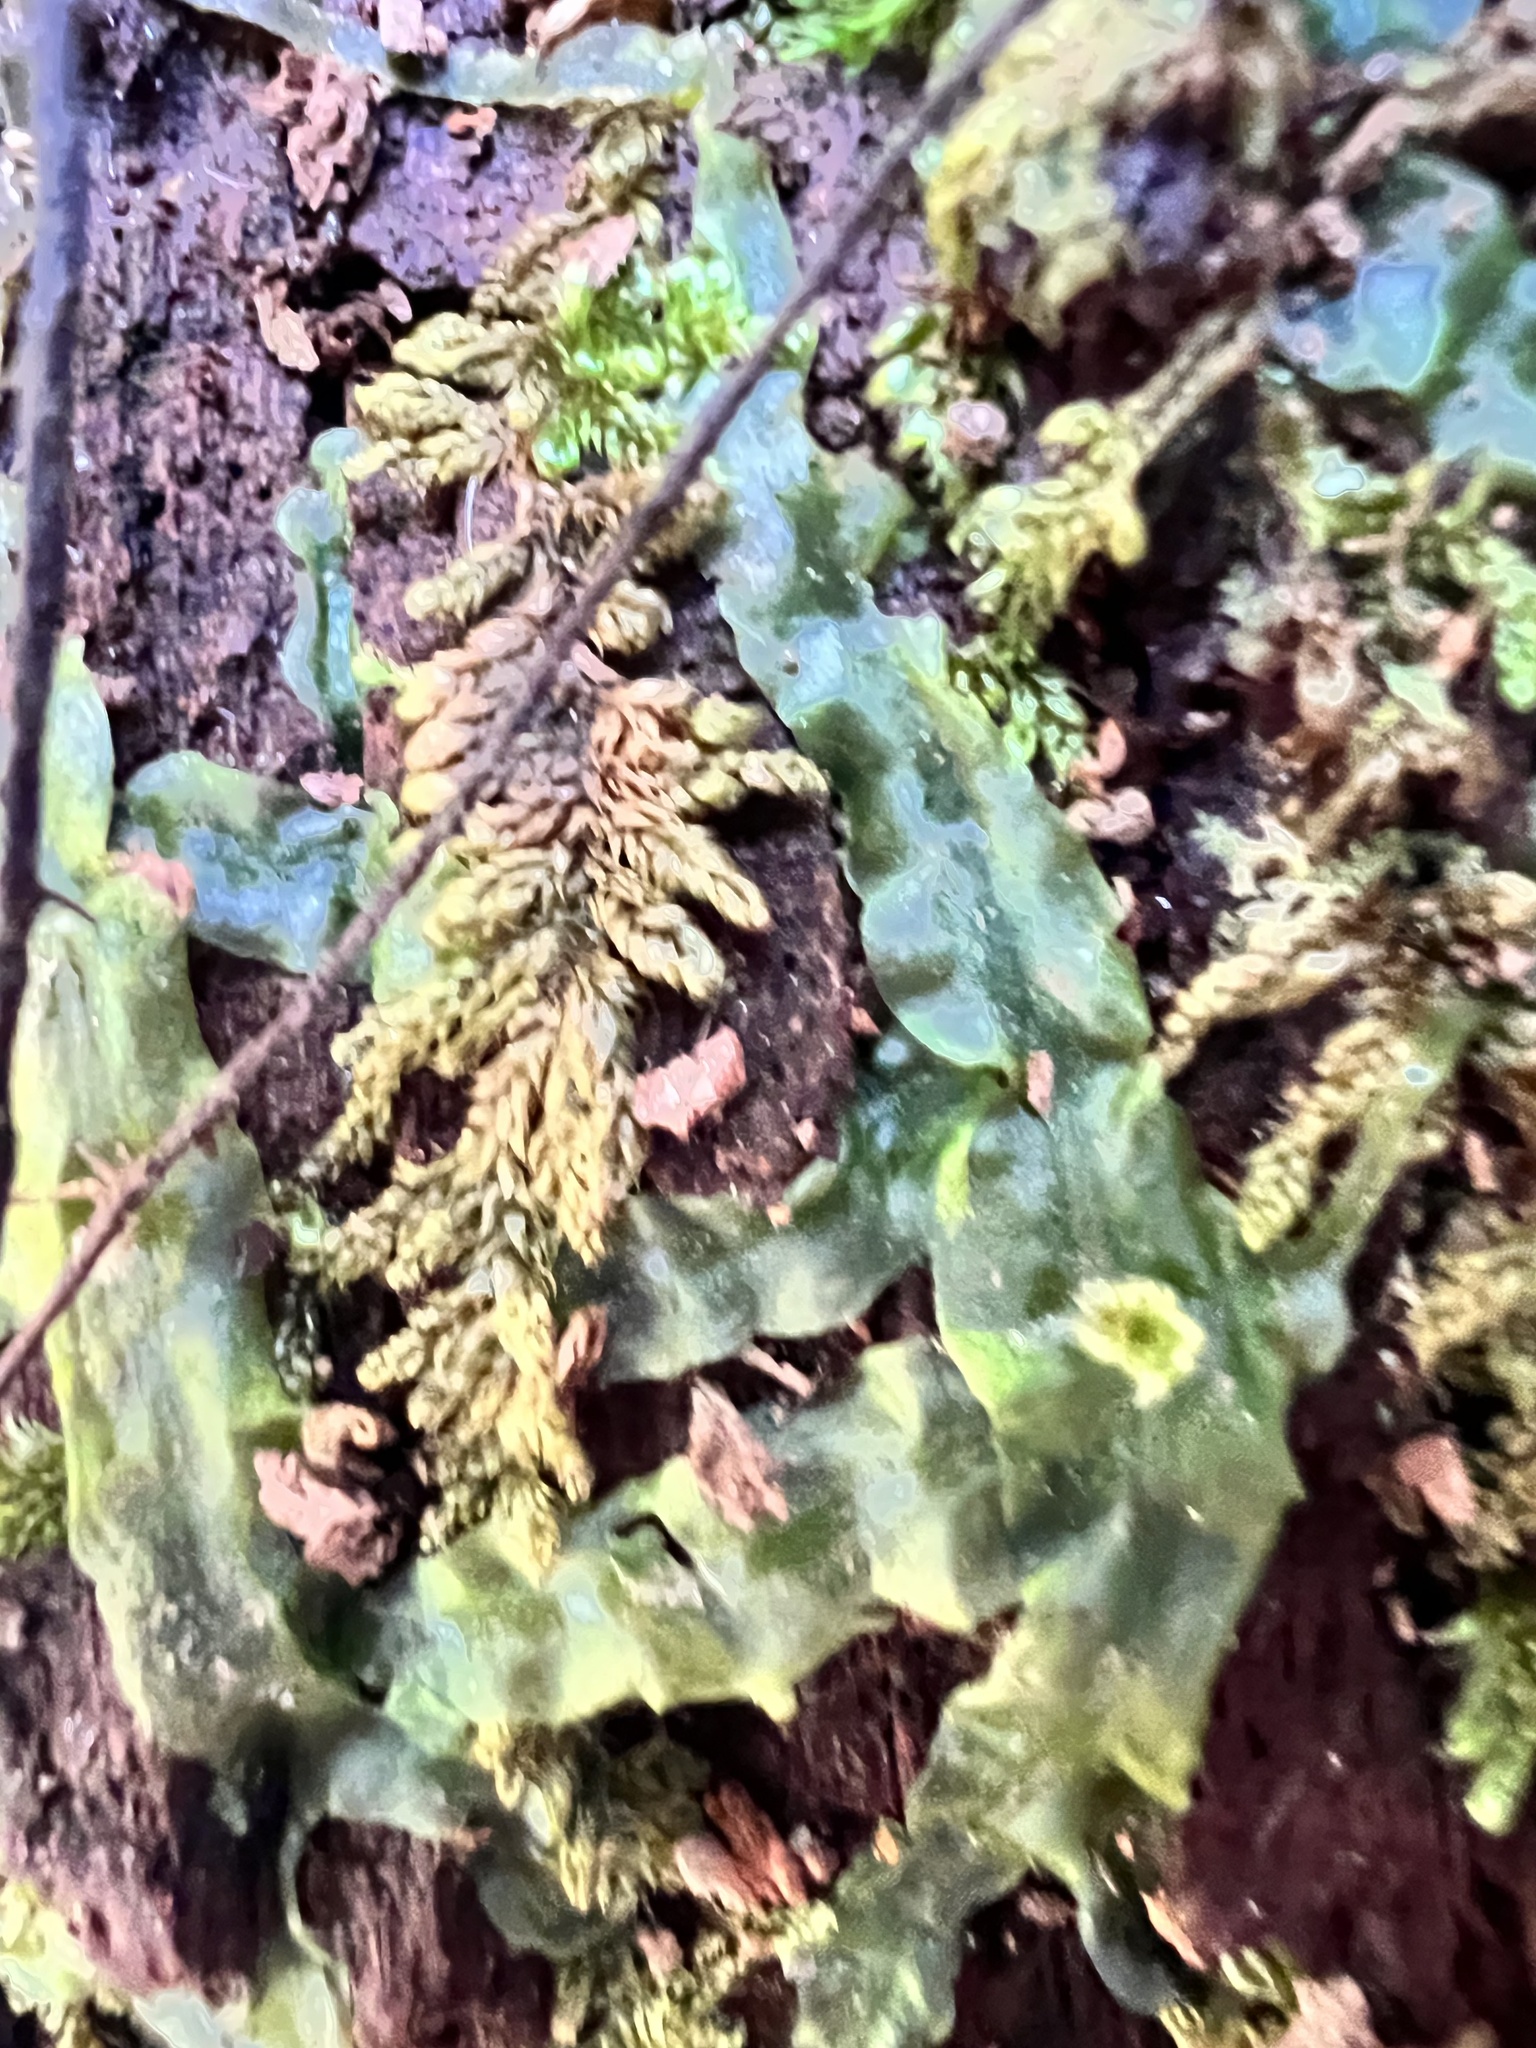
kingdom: Plantae
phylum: Marchantiophyta
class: Jungermanniopsida
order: Pallaviciniales
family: Pallaviciniaceae
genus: Pallavicinia
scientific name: Pallavicinia lyellii
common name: Veilwort
